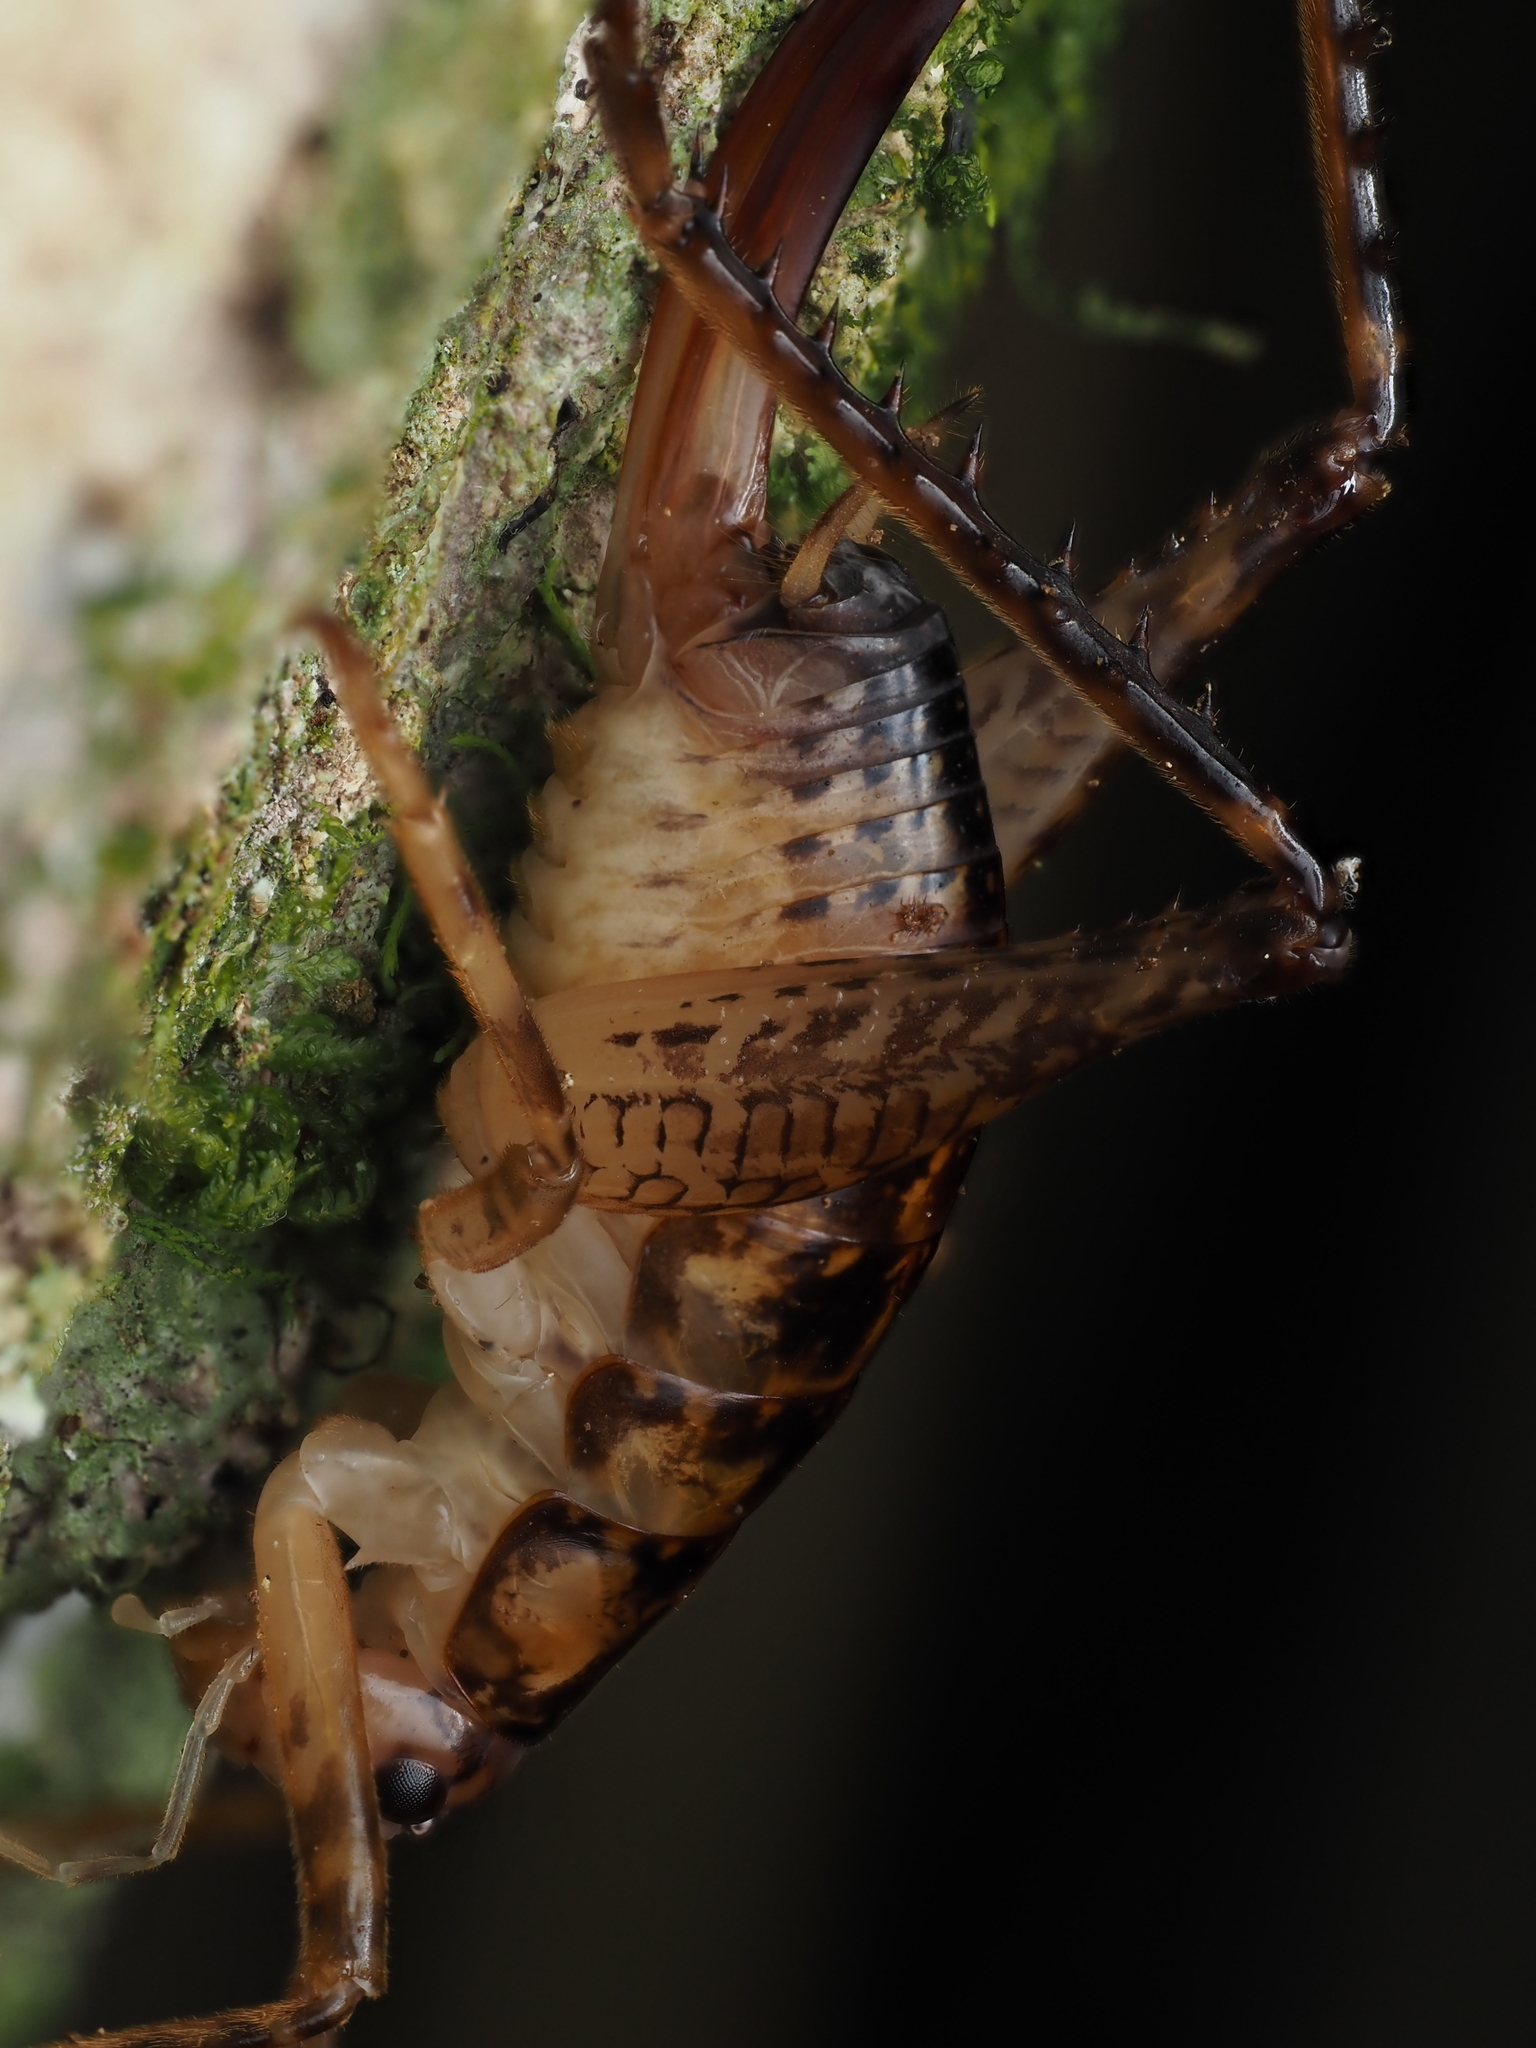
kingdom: Animalia
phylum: Arthropoda
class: Insecta
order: Orthoptera
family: Rhaphidophoridae
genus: Talitropsis
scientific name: Talitropsis sedilloti
